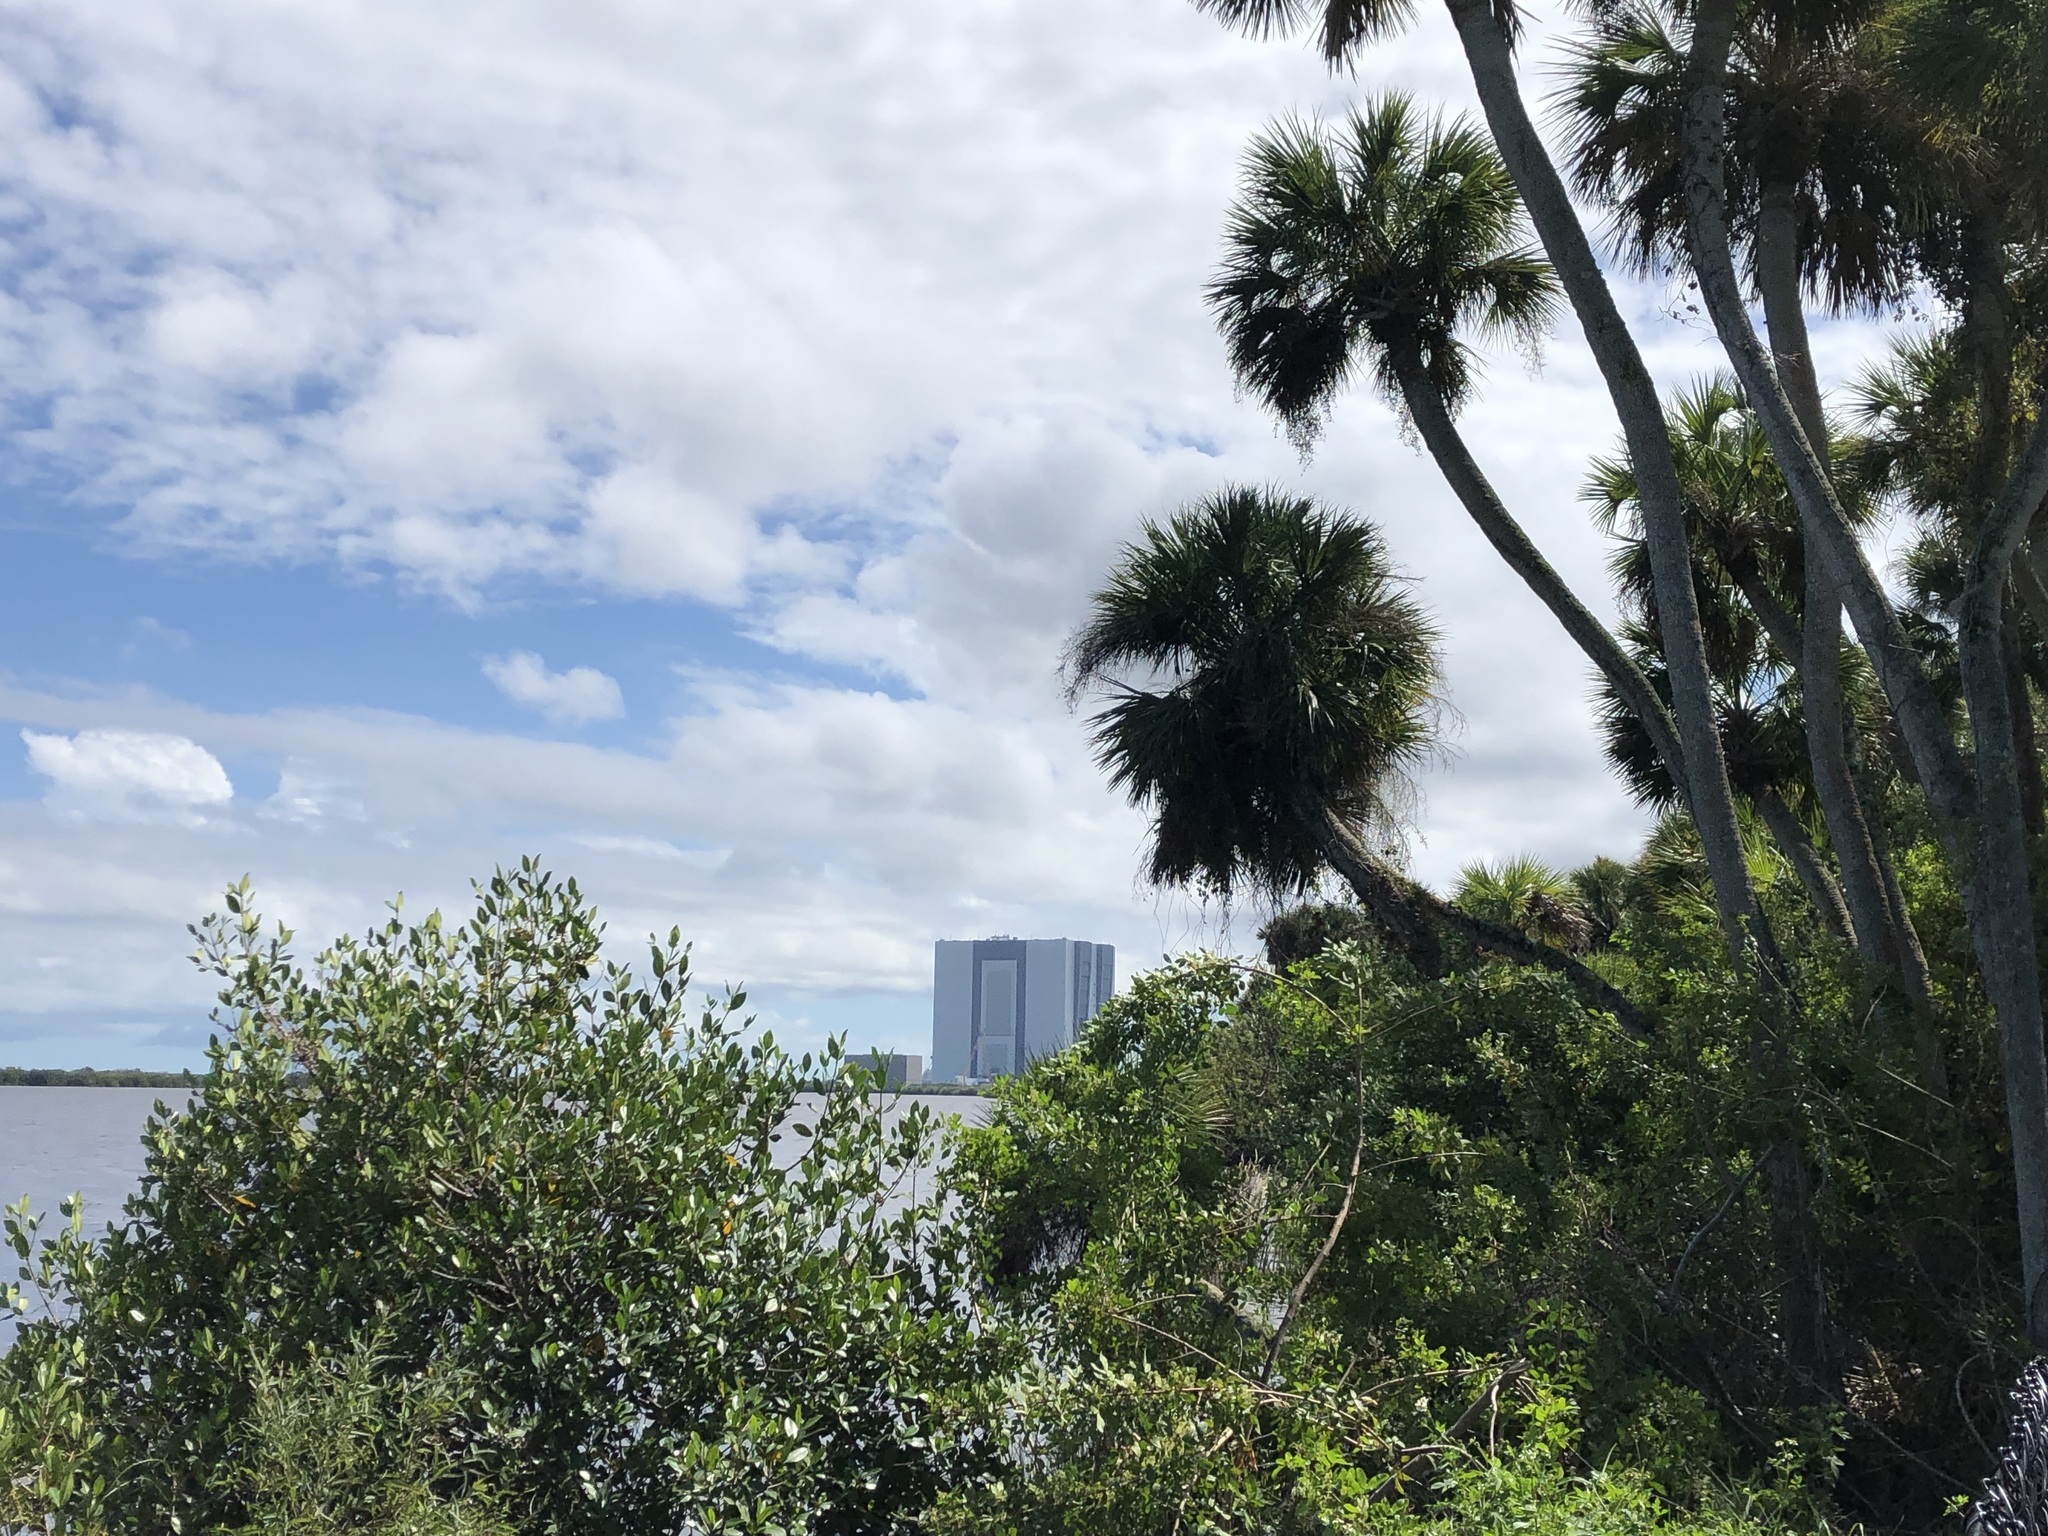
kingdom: Plantae
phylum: Tracheophyta
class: Liliopsida
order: Arecales
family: Arecaceae
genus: Sabal
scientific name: Sabal palmetto
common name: Blue palmetto
